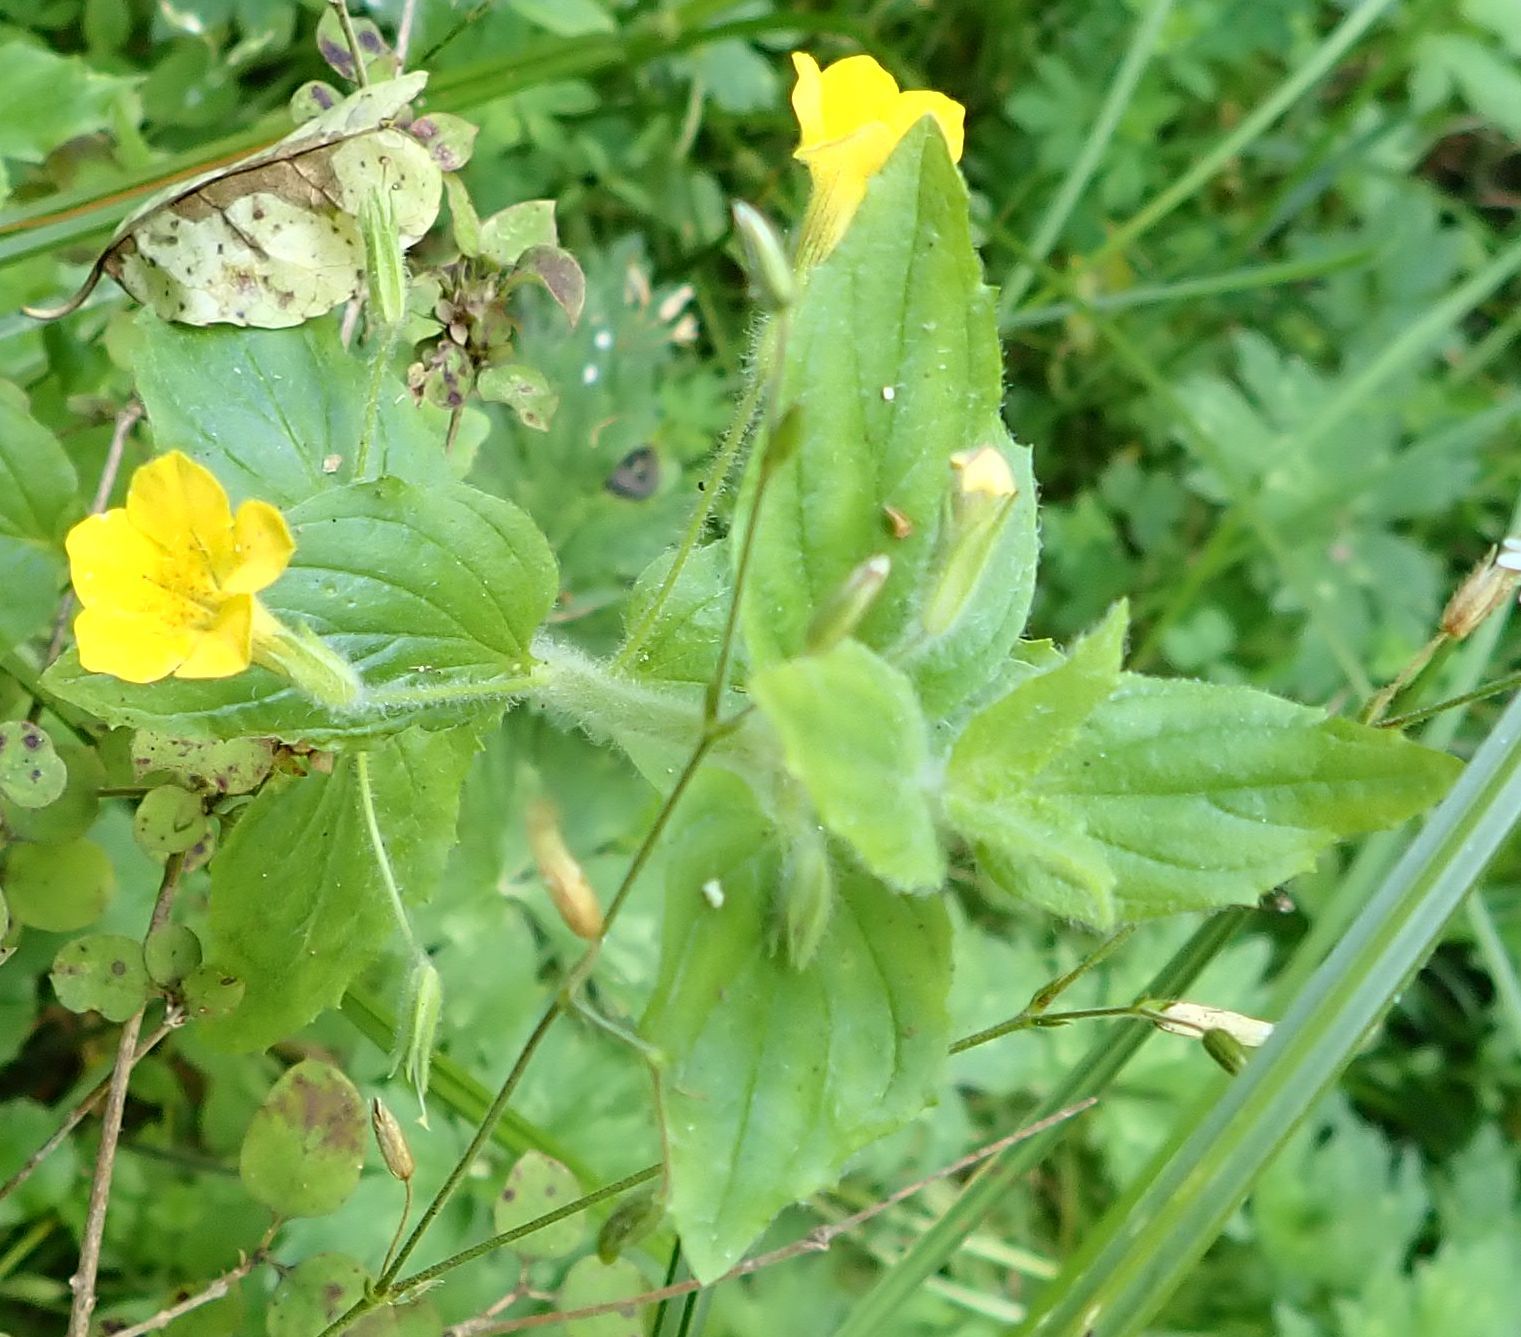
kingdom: Plantae
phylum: Tracheophyta
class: Magnoliopsida
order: Lamiales
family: Phrymaceae
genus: Erythranthe
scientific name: Erythranthe moschata
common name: Muskflower
